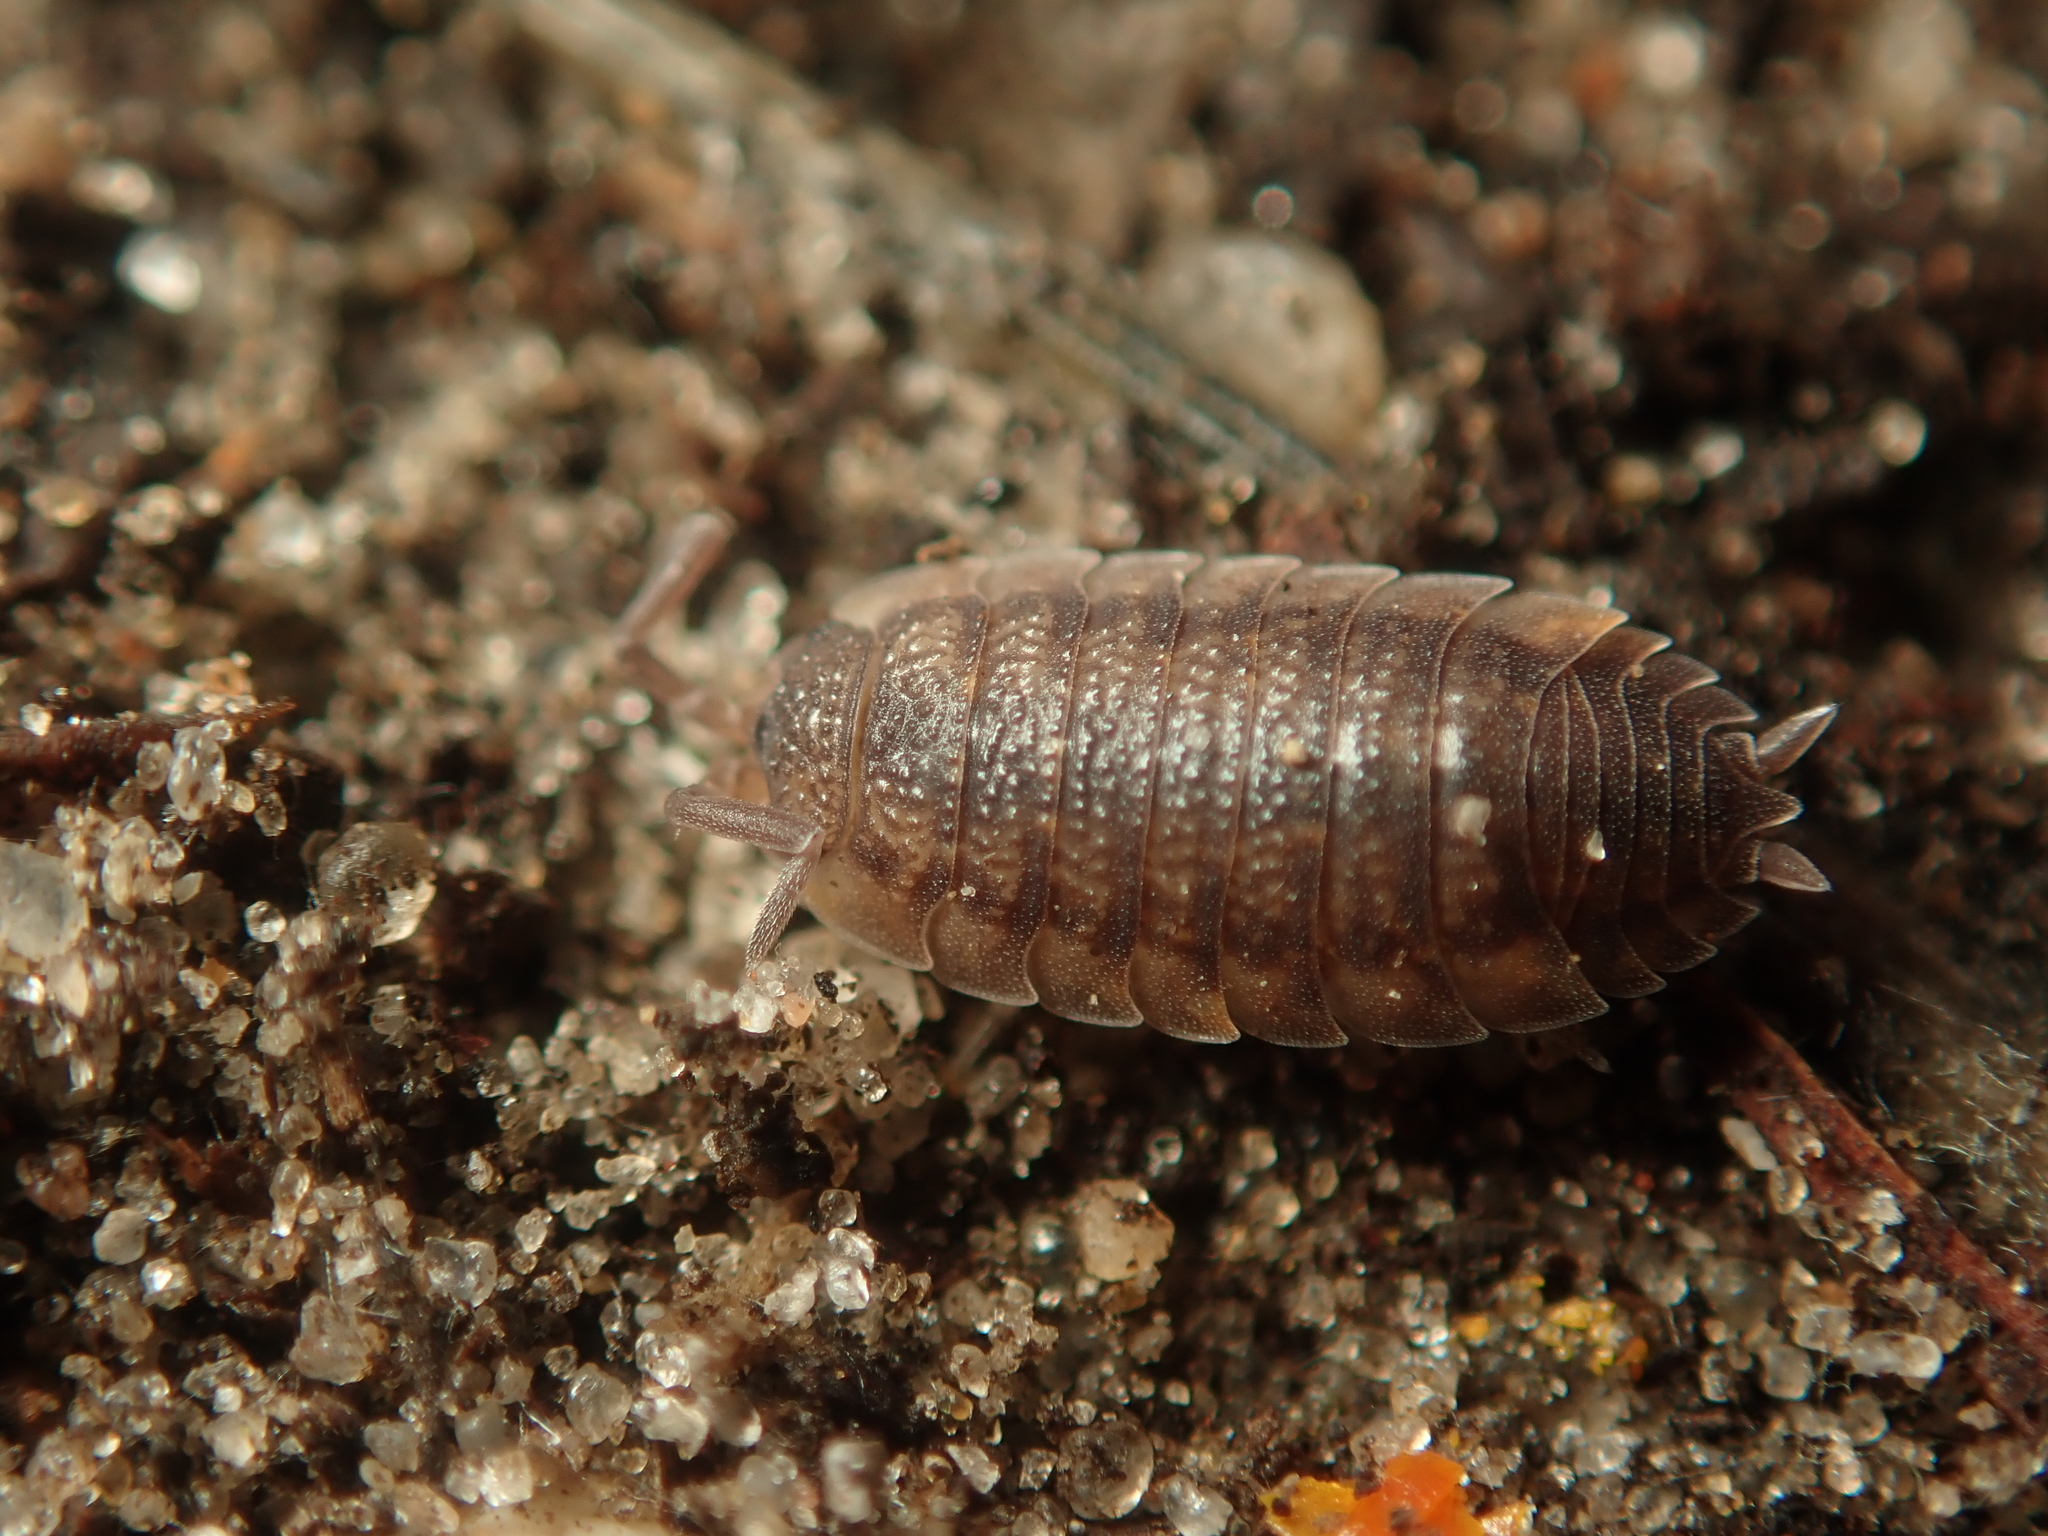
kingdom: Animalia
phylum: Arthropoda
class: Malacostraca
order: Isopoda
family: Porcellionidae
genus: Porcellio
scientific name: Porcellio scaber
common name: Common rough woodlouse
